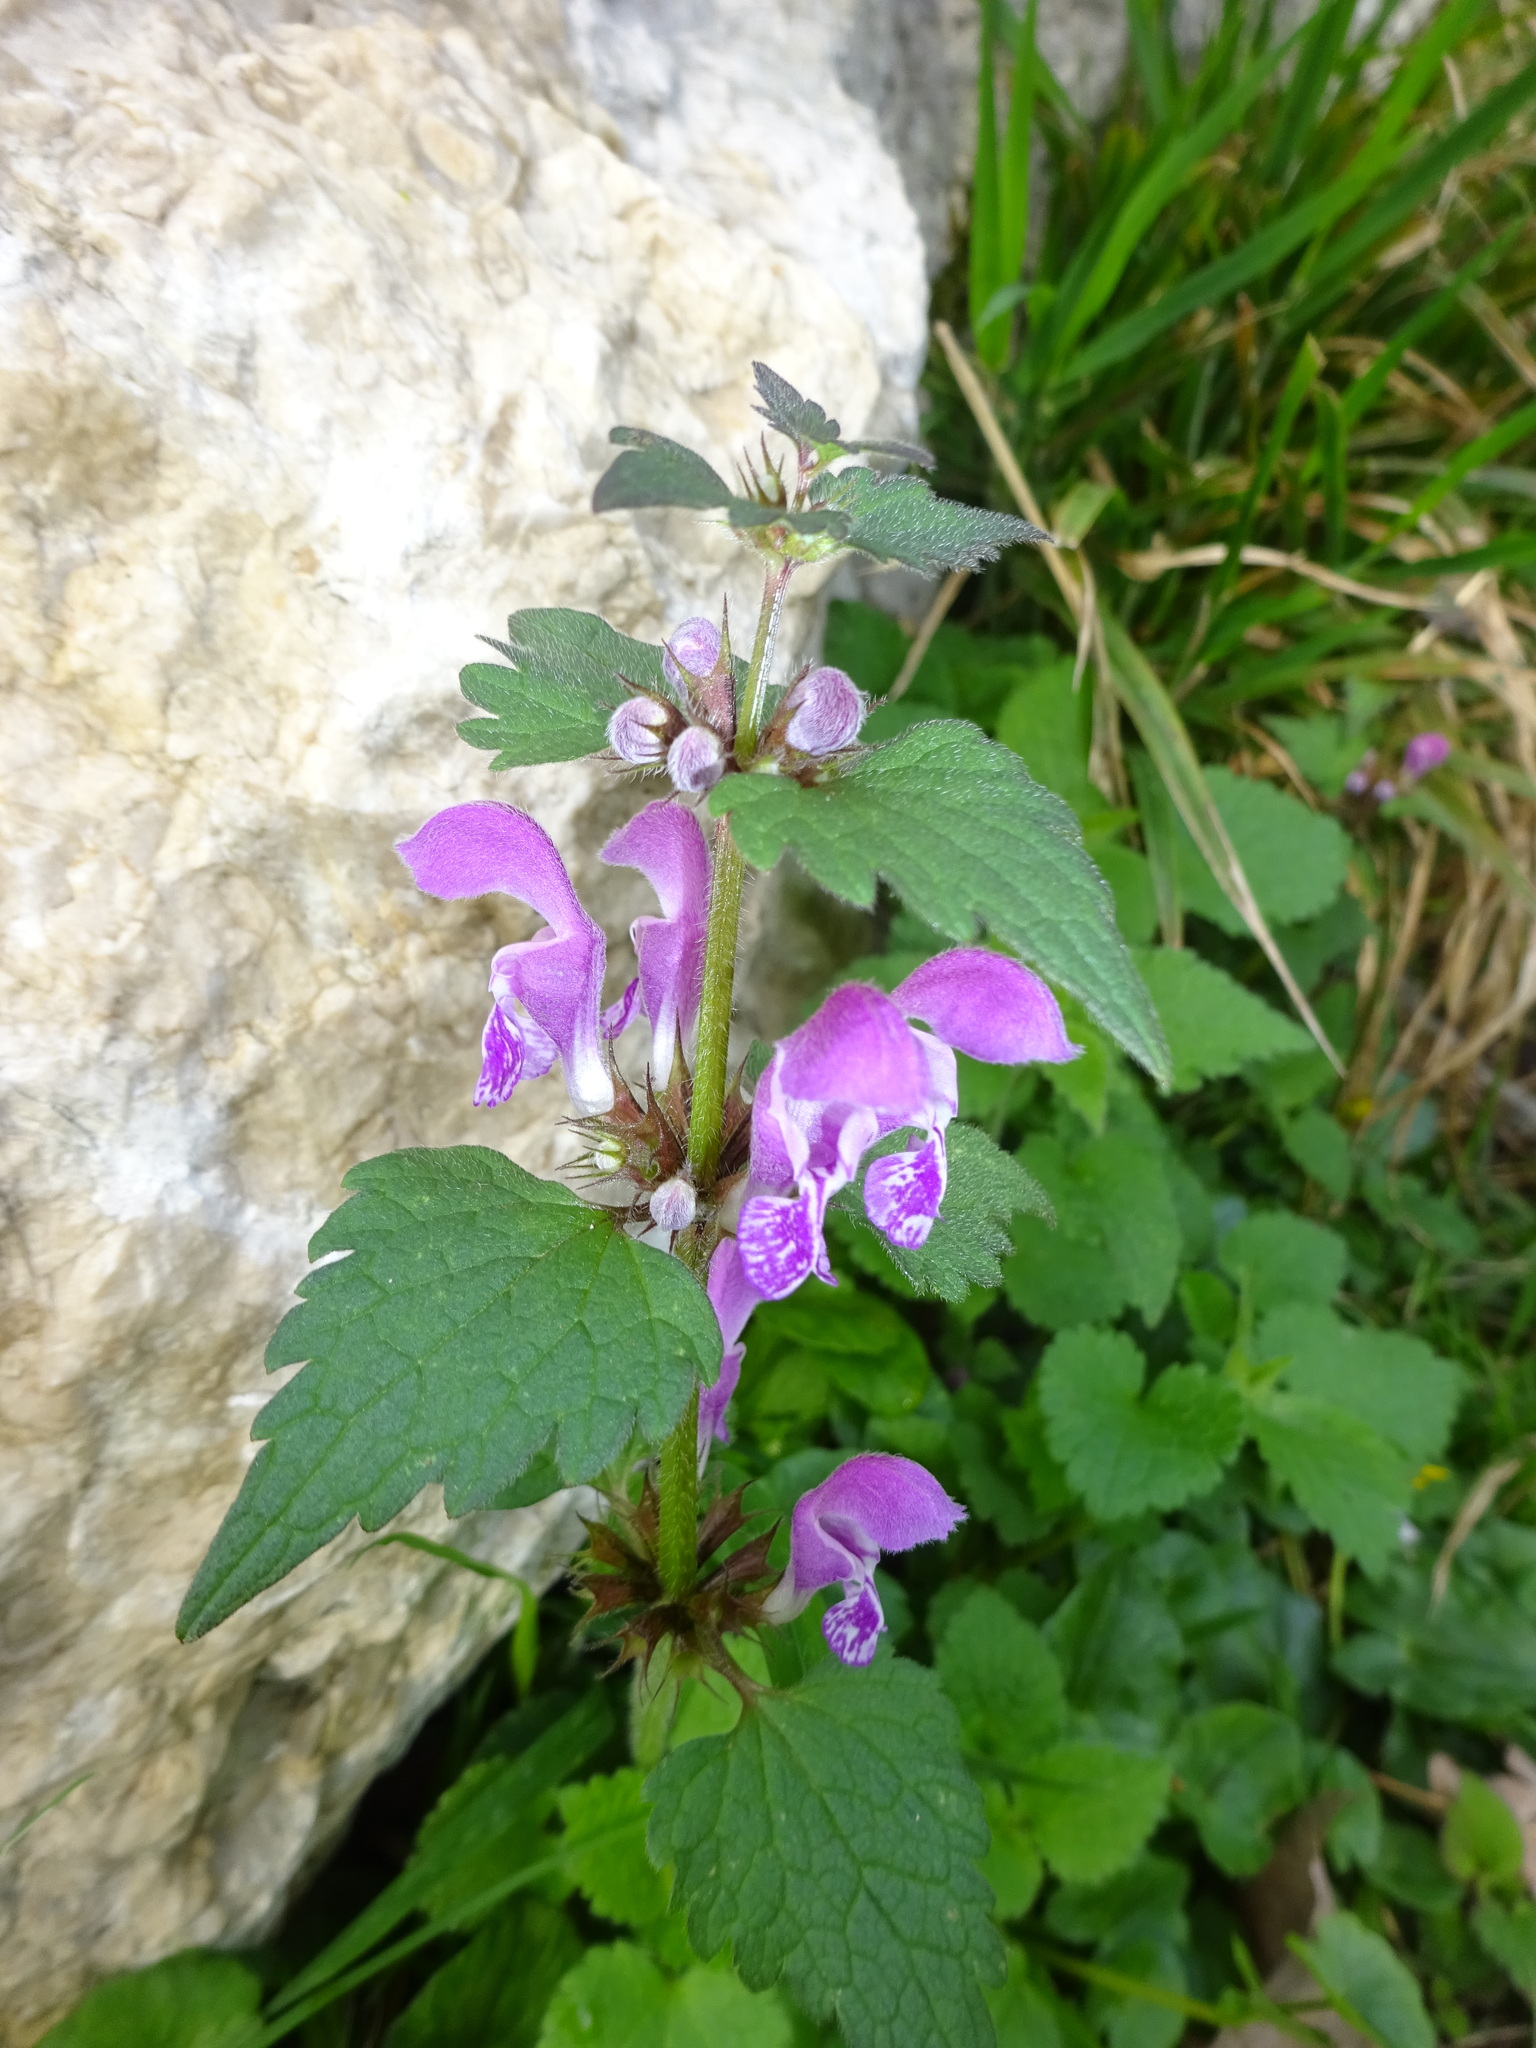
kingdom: Plantae
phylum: Tracheophyta
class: Magnoliopsida
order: Lamiales
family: Lamiaceae
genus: Lamium
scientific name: Lamium maculatum
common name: Spotted dead-nettle
